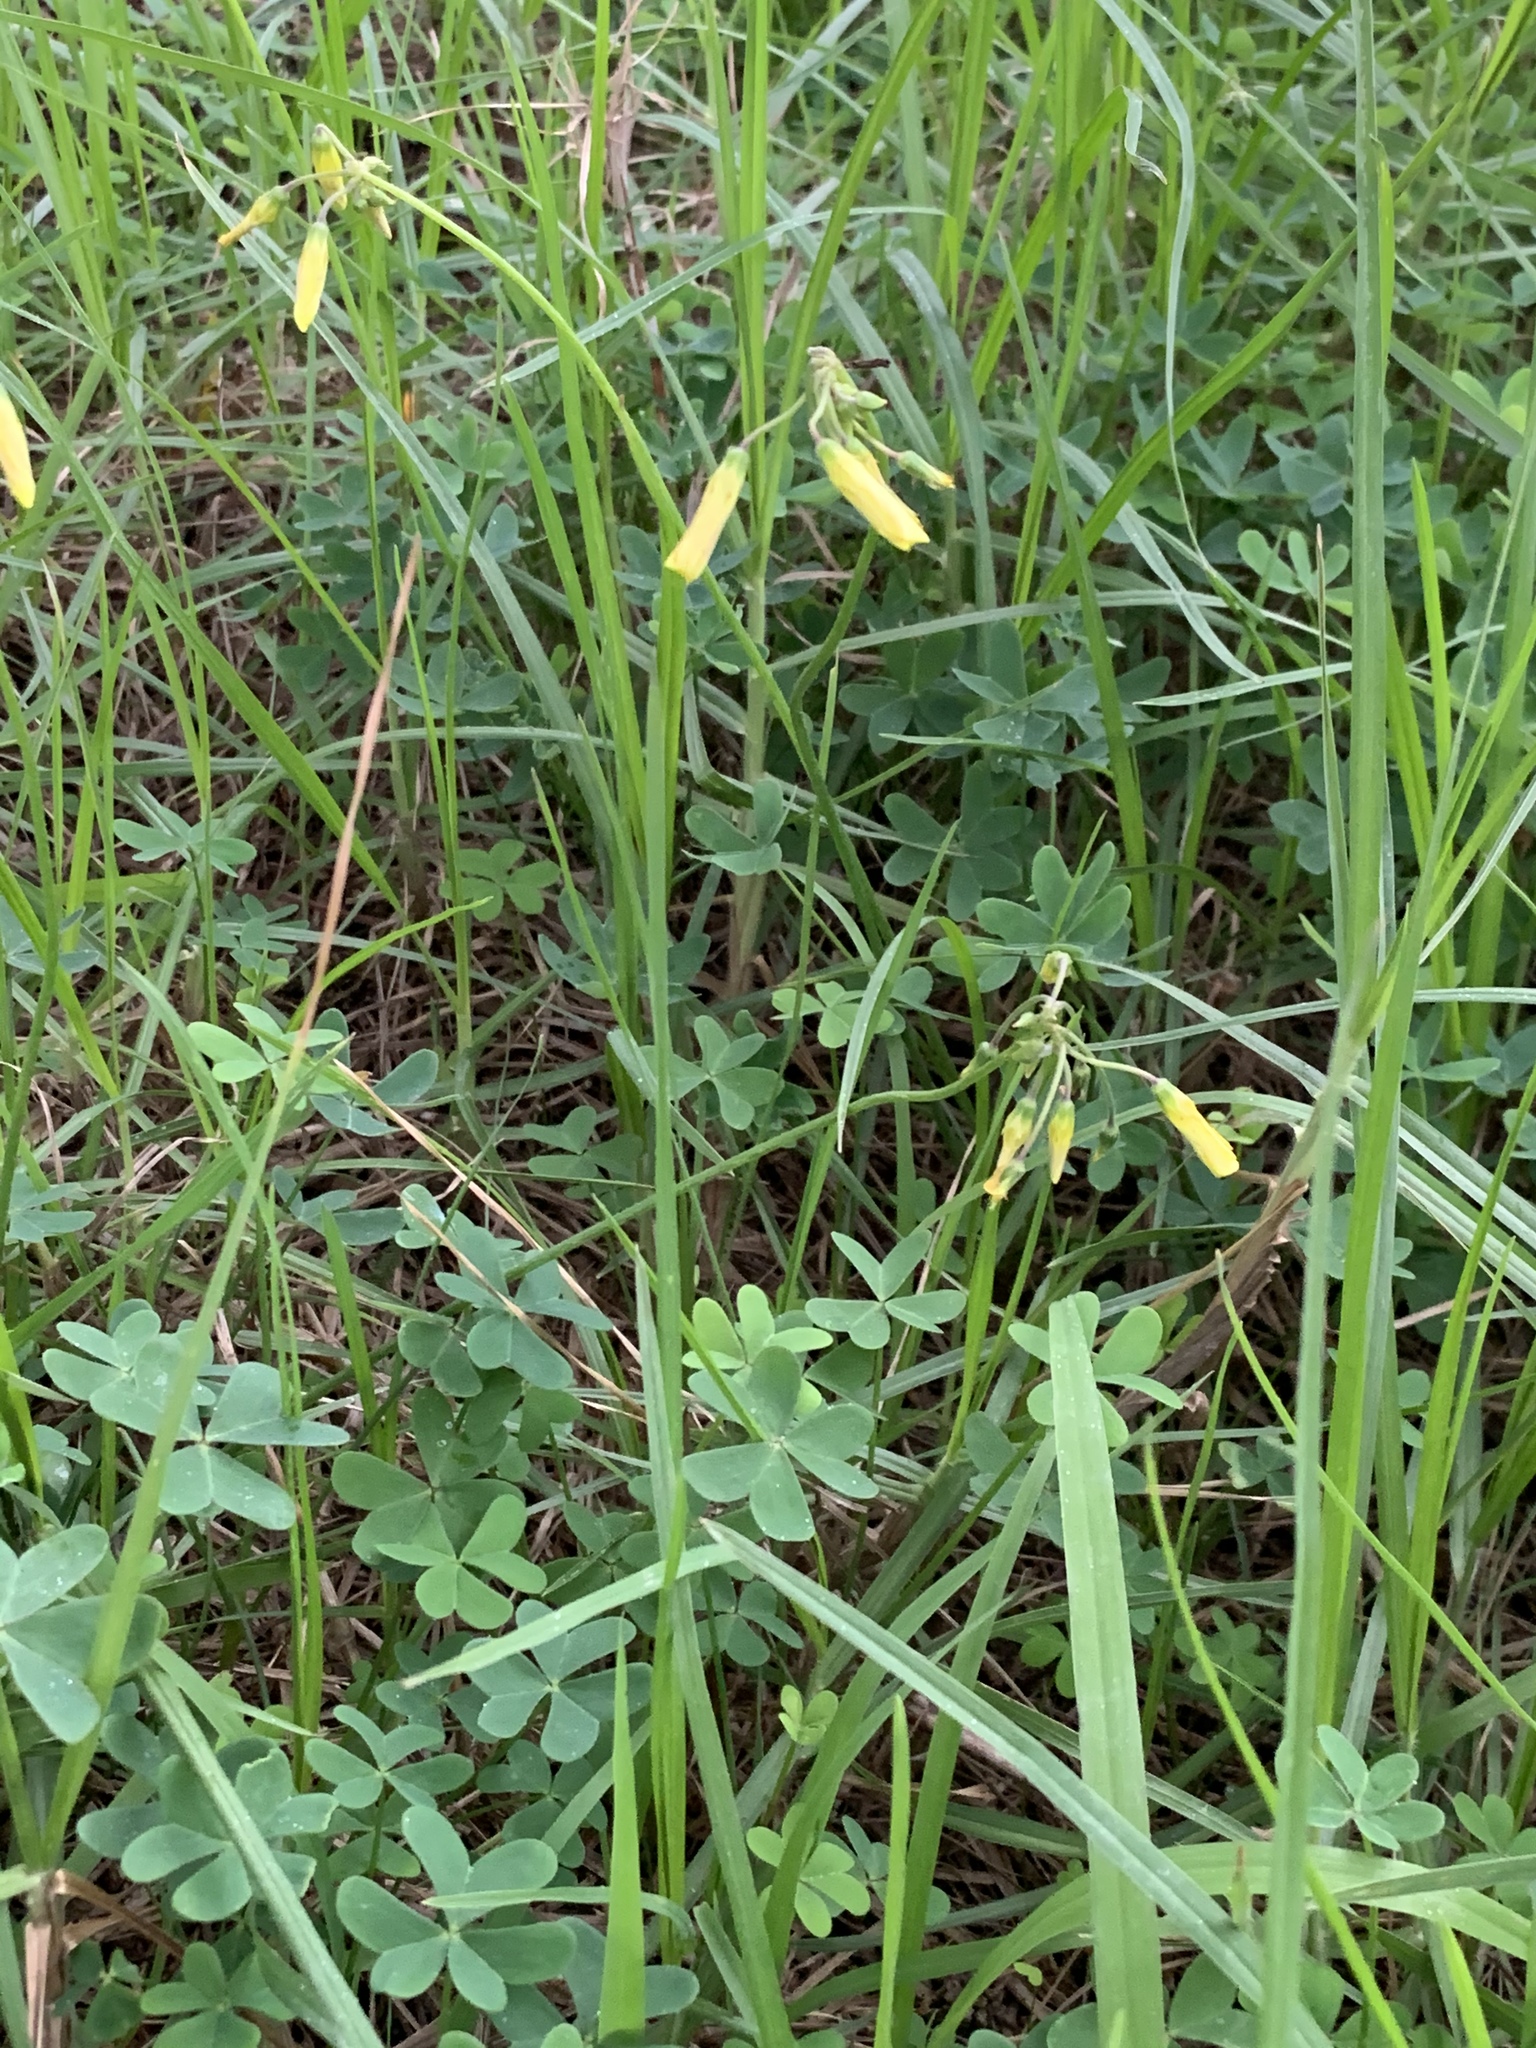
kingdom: Plantae
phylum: Tracheophyta
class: Magnoliopsida
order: Oxalidales
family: Oxalidaceae
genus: Oxalis
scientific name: Oxalis pes-caprae
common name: Bermuda-buttercup
